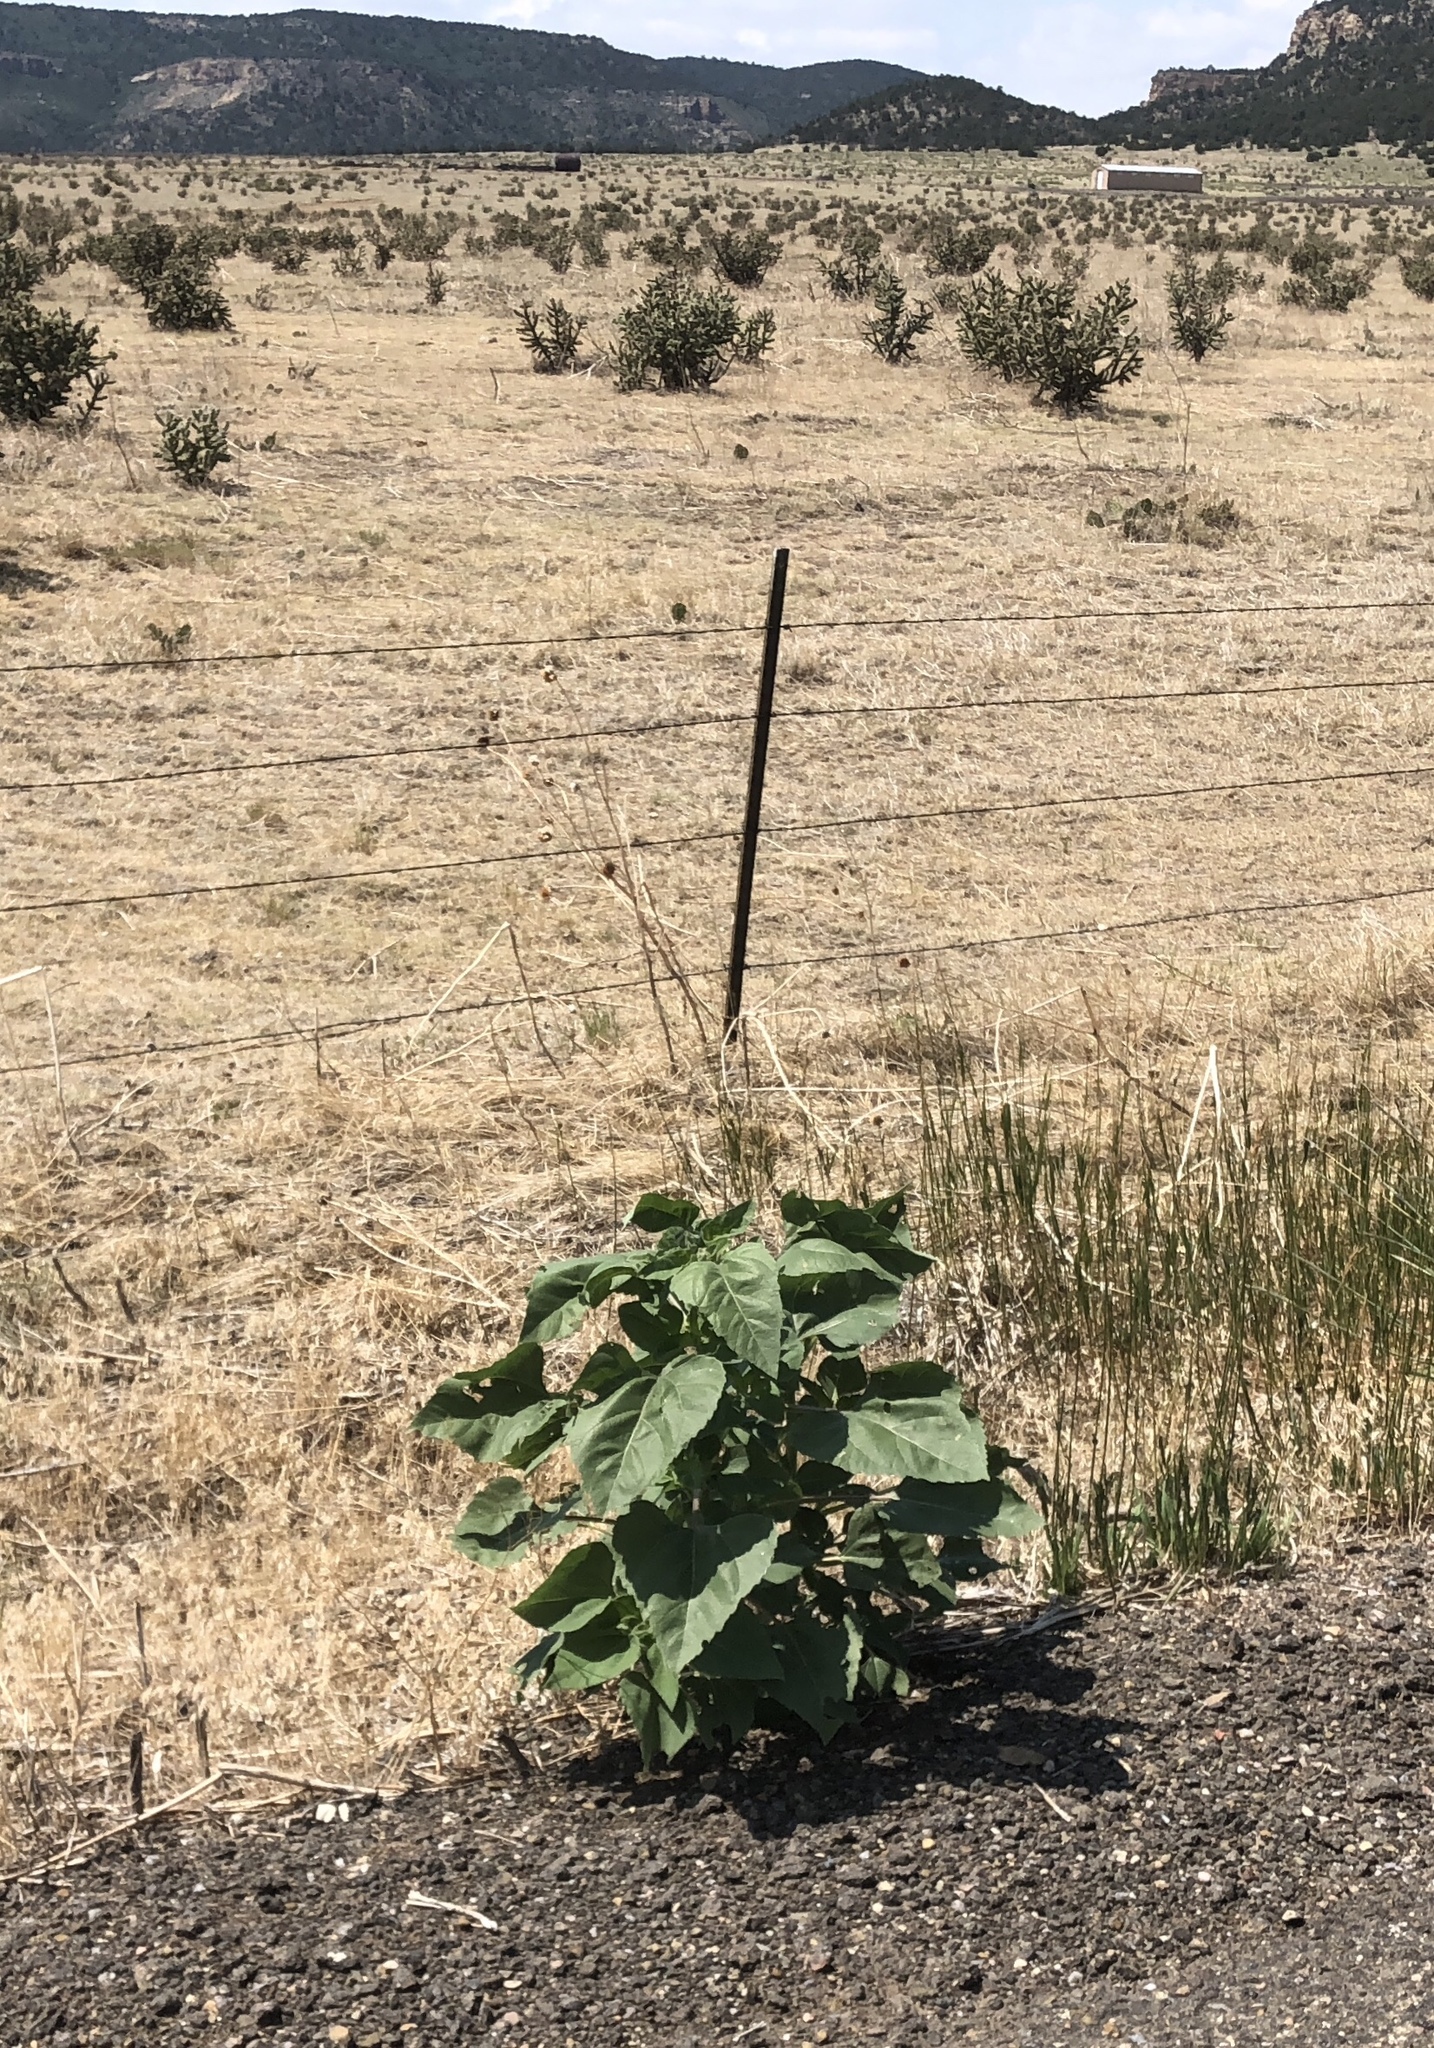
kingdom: Plantae
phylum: Tracheophyta
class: Magnoliopsida
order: Asterales
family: Asteraceae
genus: Helianthus
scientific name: Helianthus annuus
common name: Sunflower
